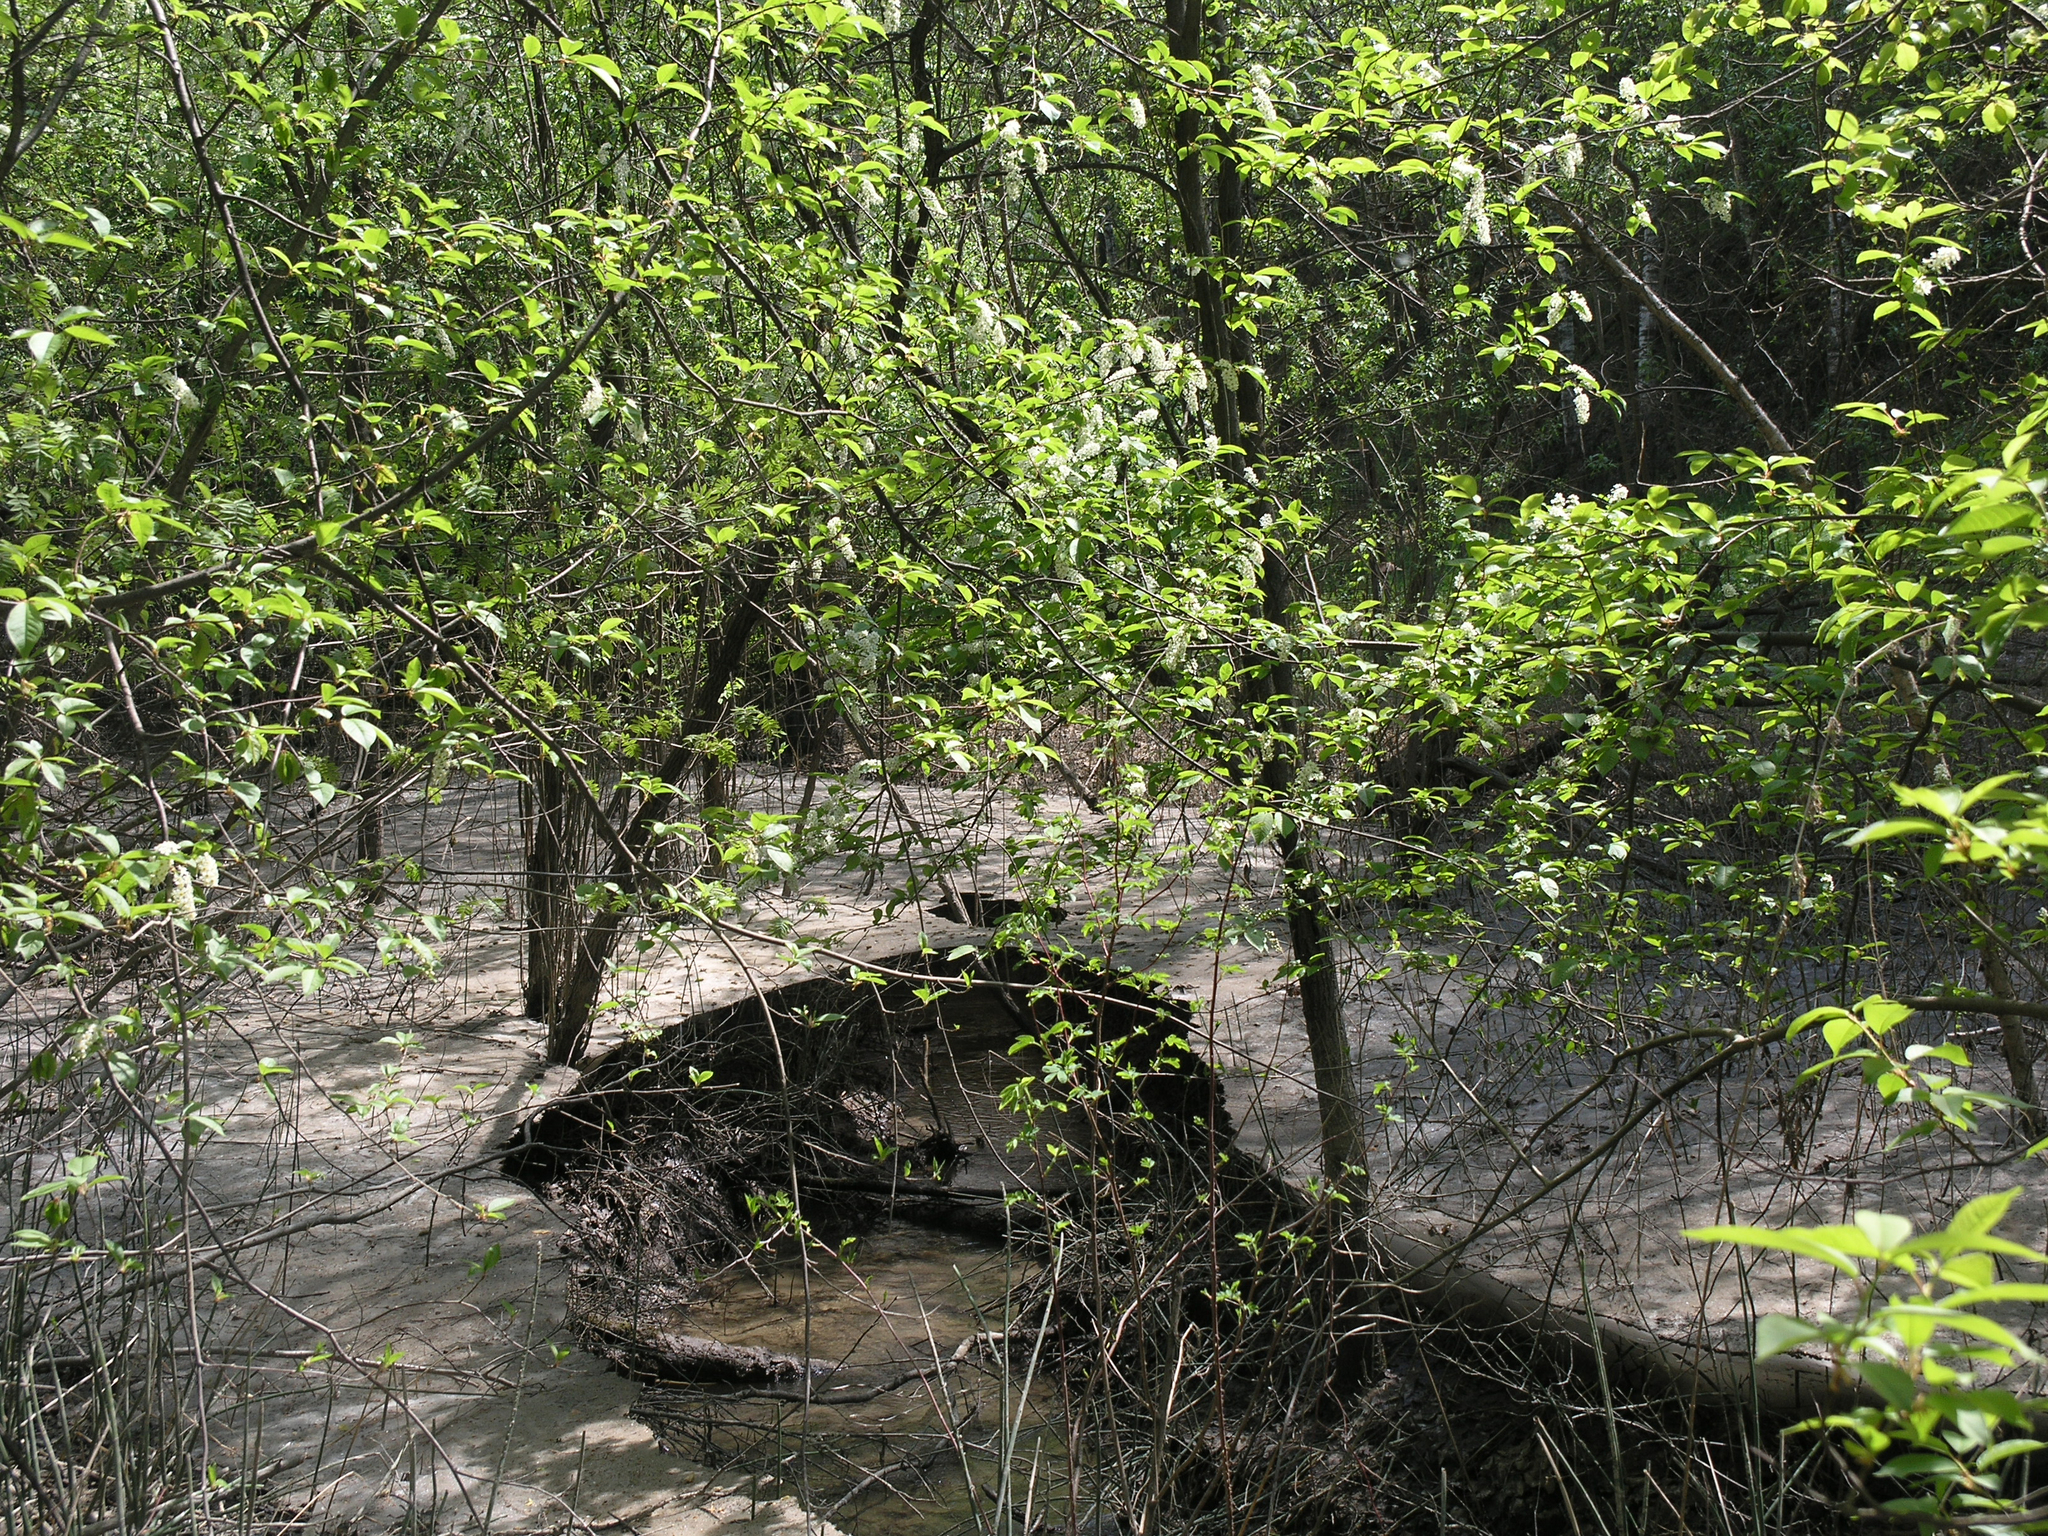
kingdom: Plantae
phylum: Tracheophyta
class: Magnoliopsida
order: Rosales
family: Rosaceae
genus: Prunus
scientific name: Prunus padus
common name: Bird cherry
